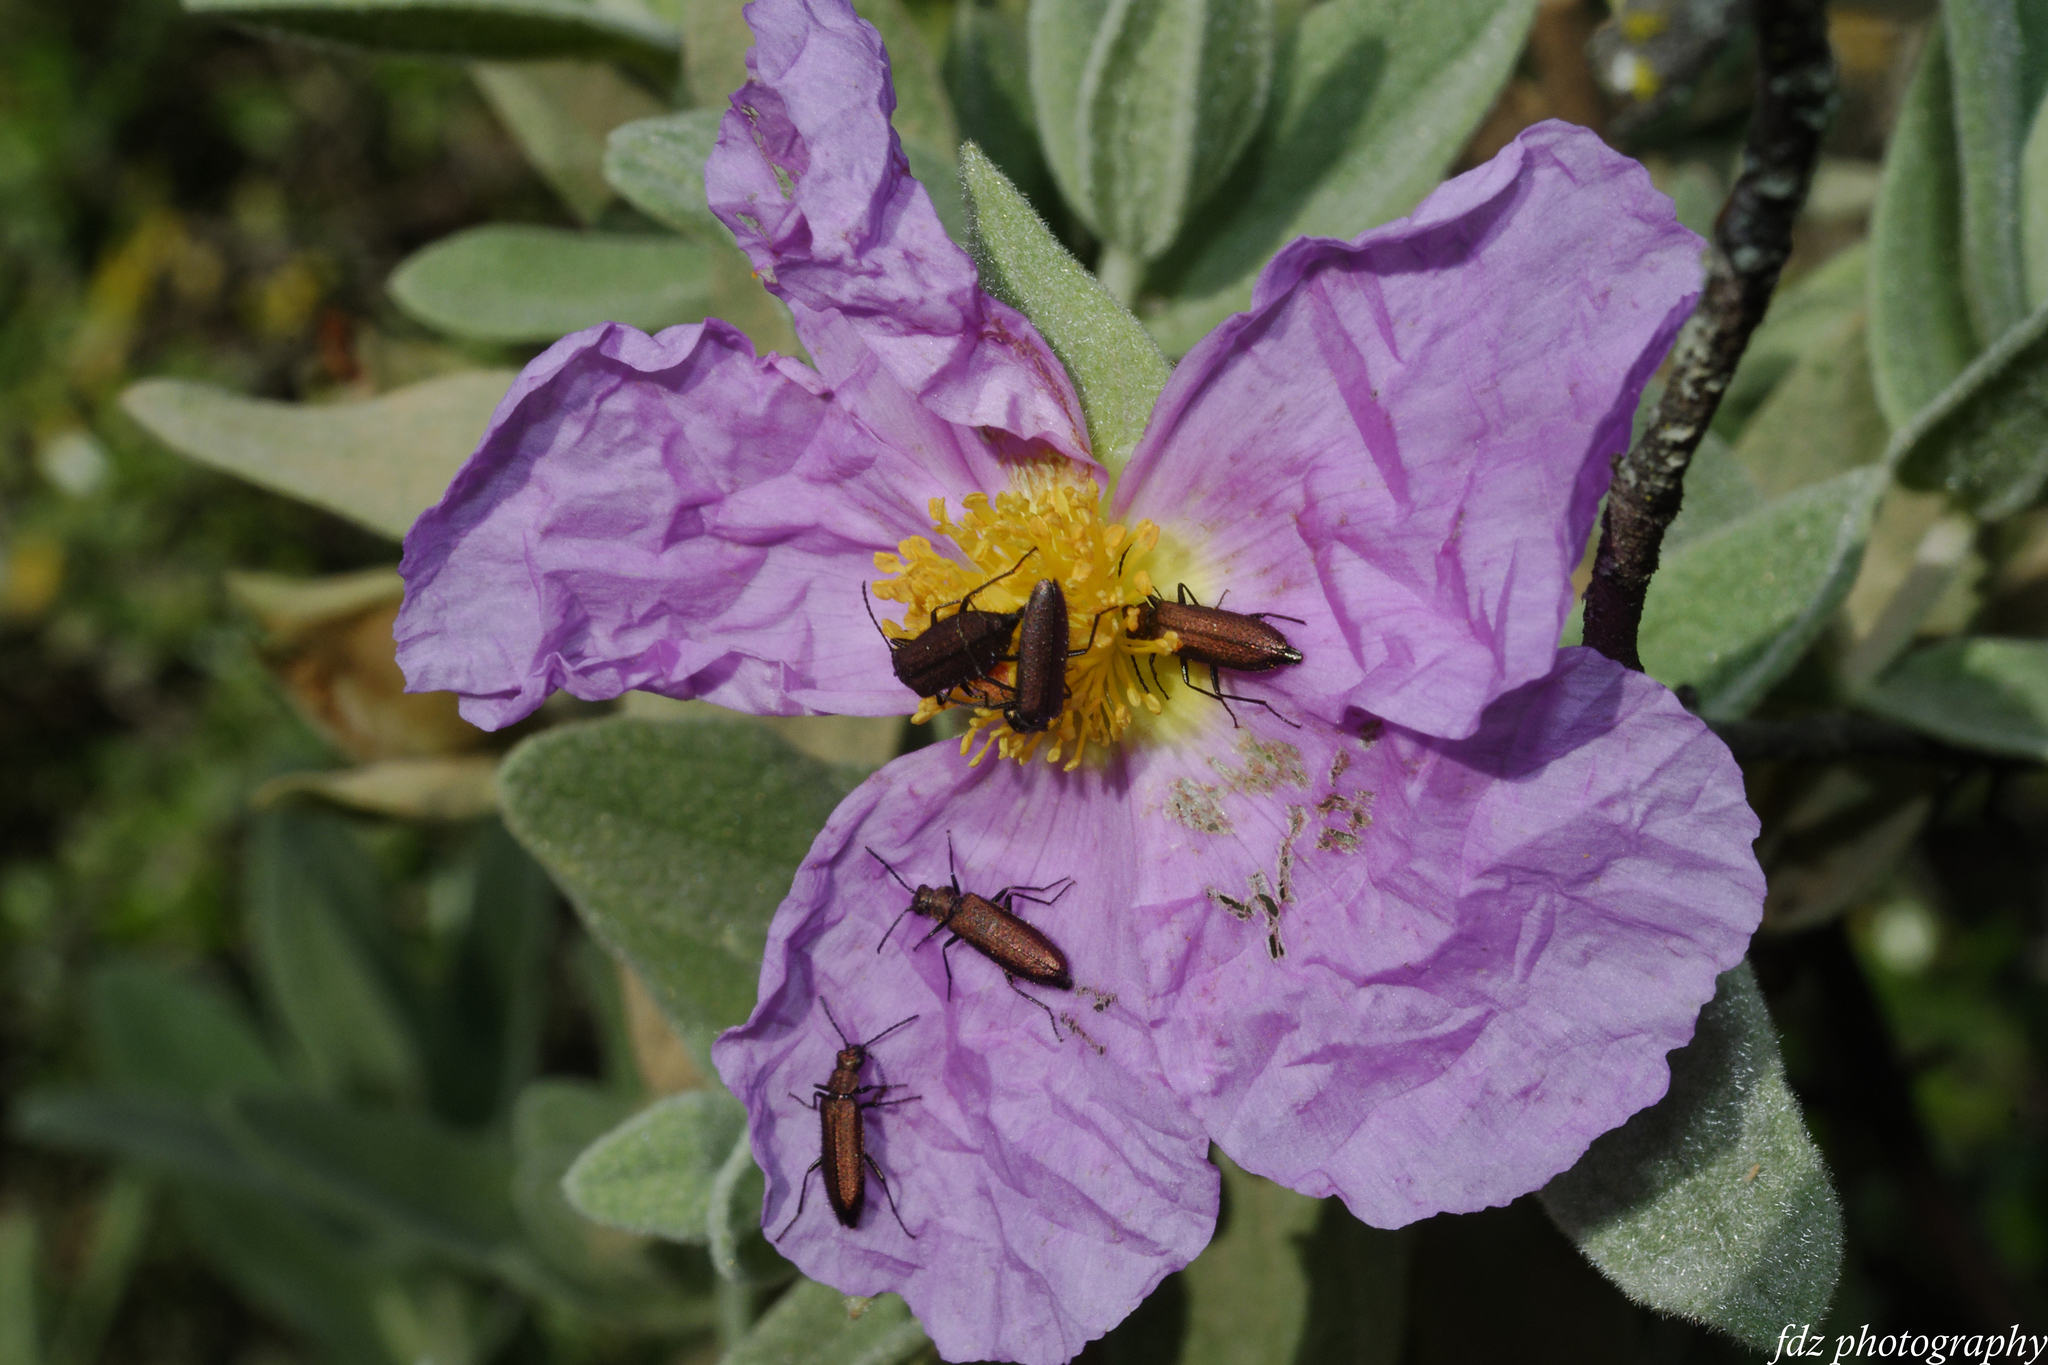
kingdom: Animalia
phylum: Arthropoda
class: Insecta
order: Coleoptera
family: Stenotrachelidae
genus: Stenotrachelus
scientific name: Stenotrachelus aeneus
